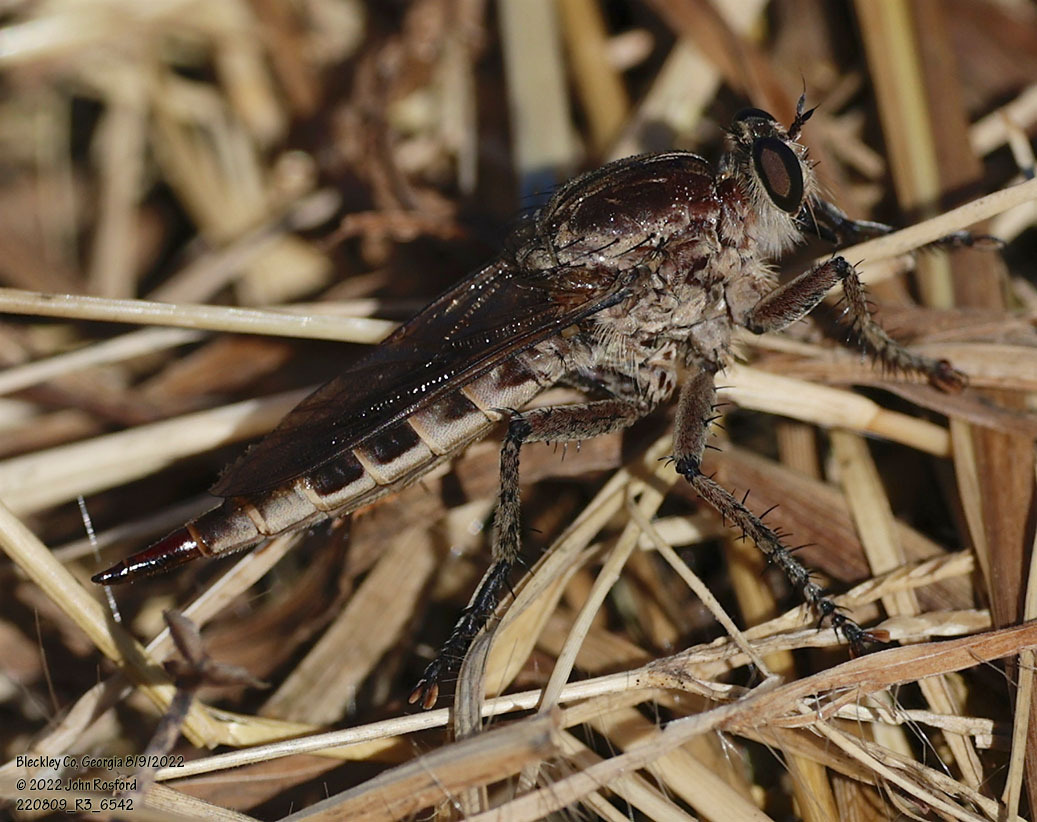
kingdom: Animalia
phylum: Arthropoda
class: Insecta
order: Diptera
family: Asilidae
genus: Triorla
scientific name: Triorla interrupta
